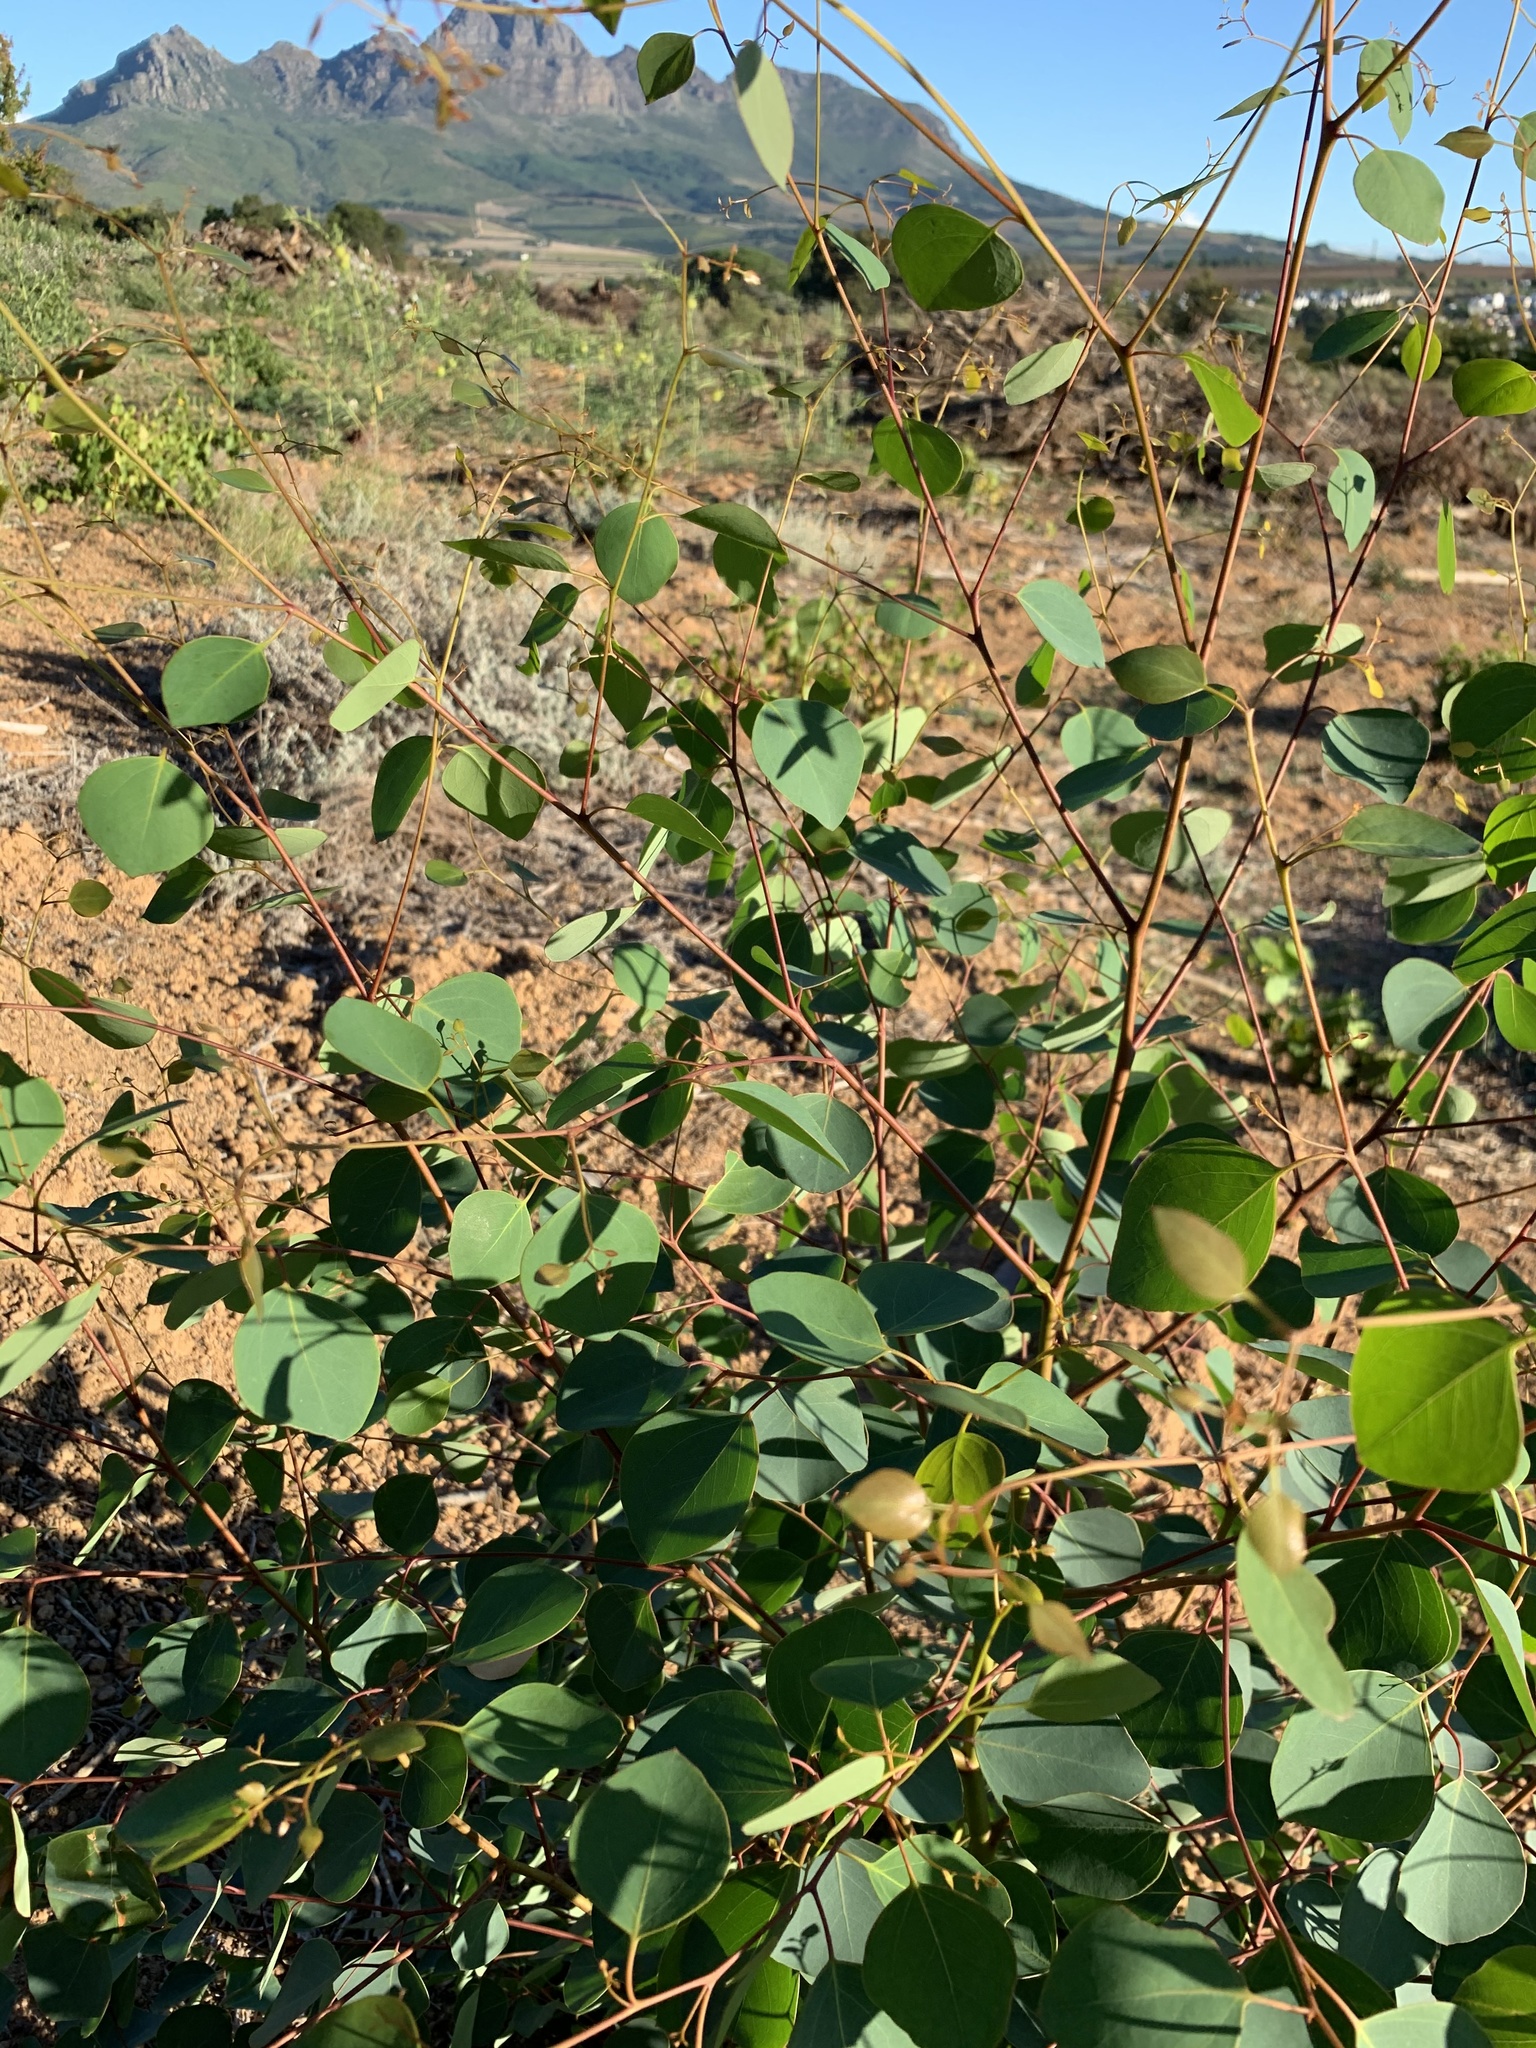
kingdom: Plantae
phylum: Tracheophyta
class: Magnoliopsida
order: Myrtales
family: Myrtaceae
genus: Eucalyptus
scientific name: Eucalyptus cladocalyx
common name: Sugargum
